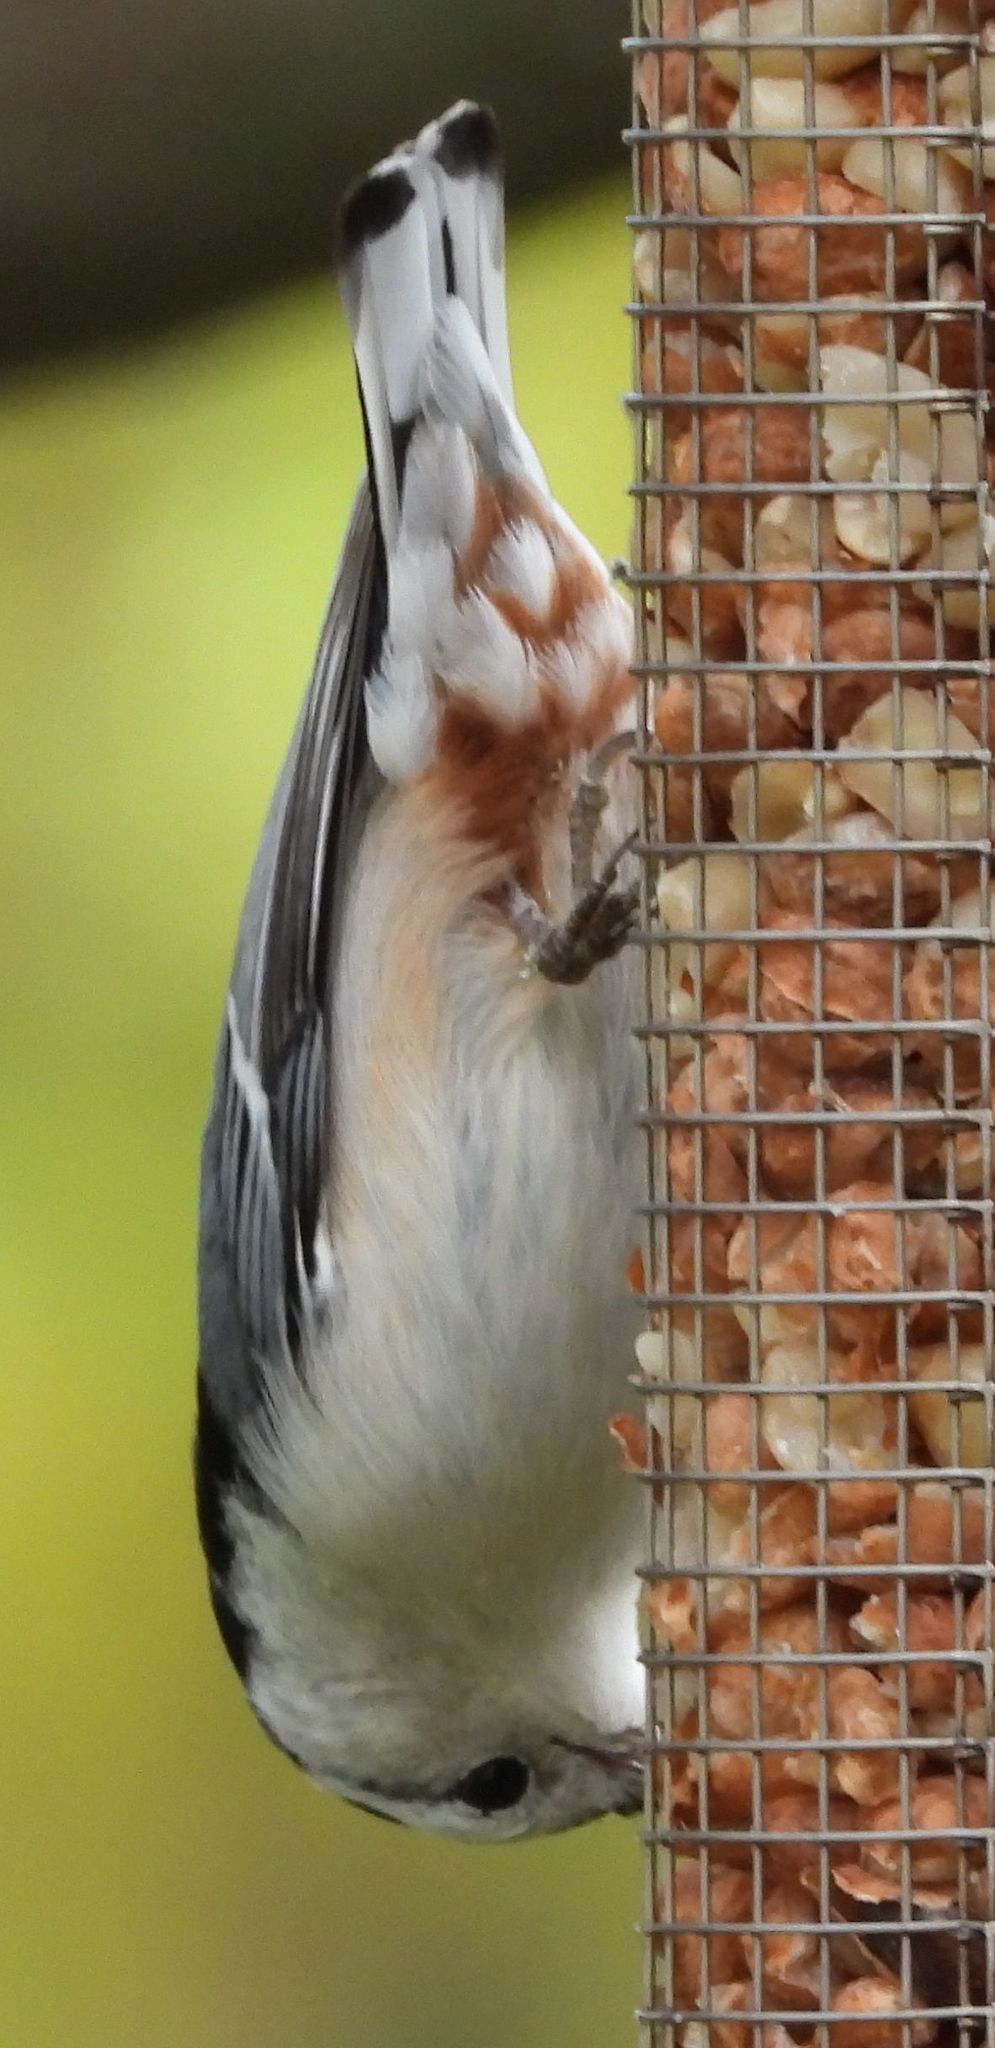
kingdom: Animalia
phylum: Chordata
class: Aves
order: Passeriformes
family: Sittidae
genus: Sitta
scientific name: Sitta carolinensis
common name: White-breasted nuthatch
